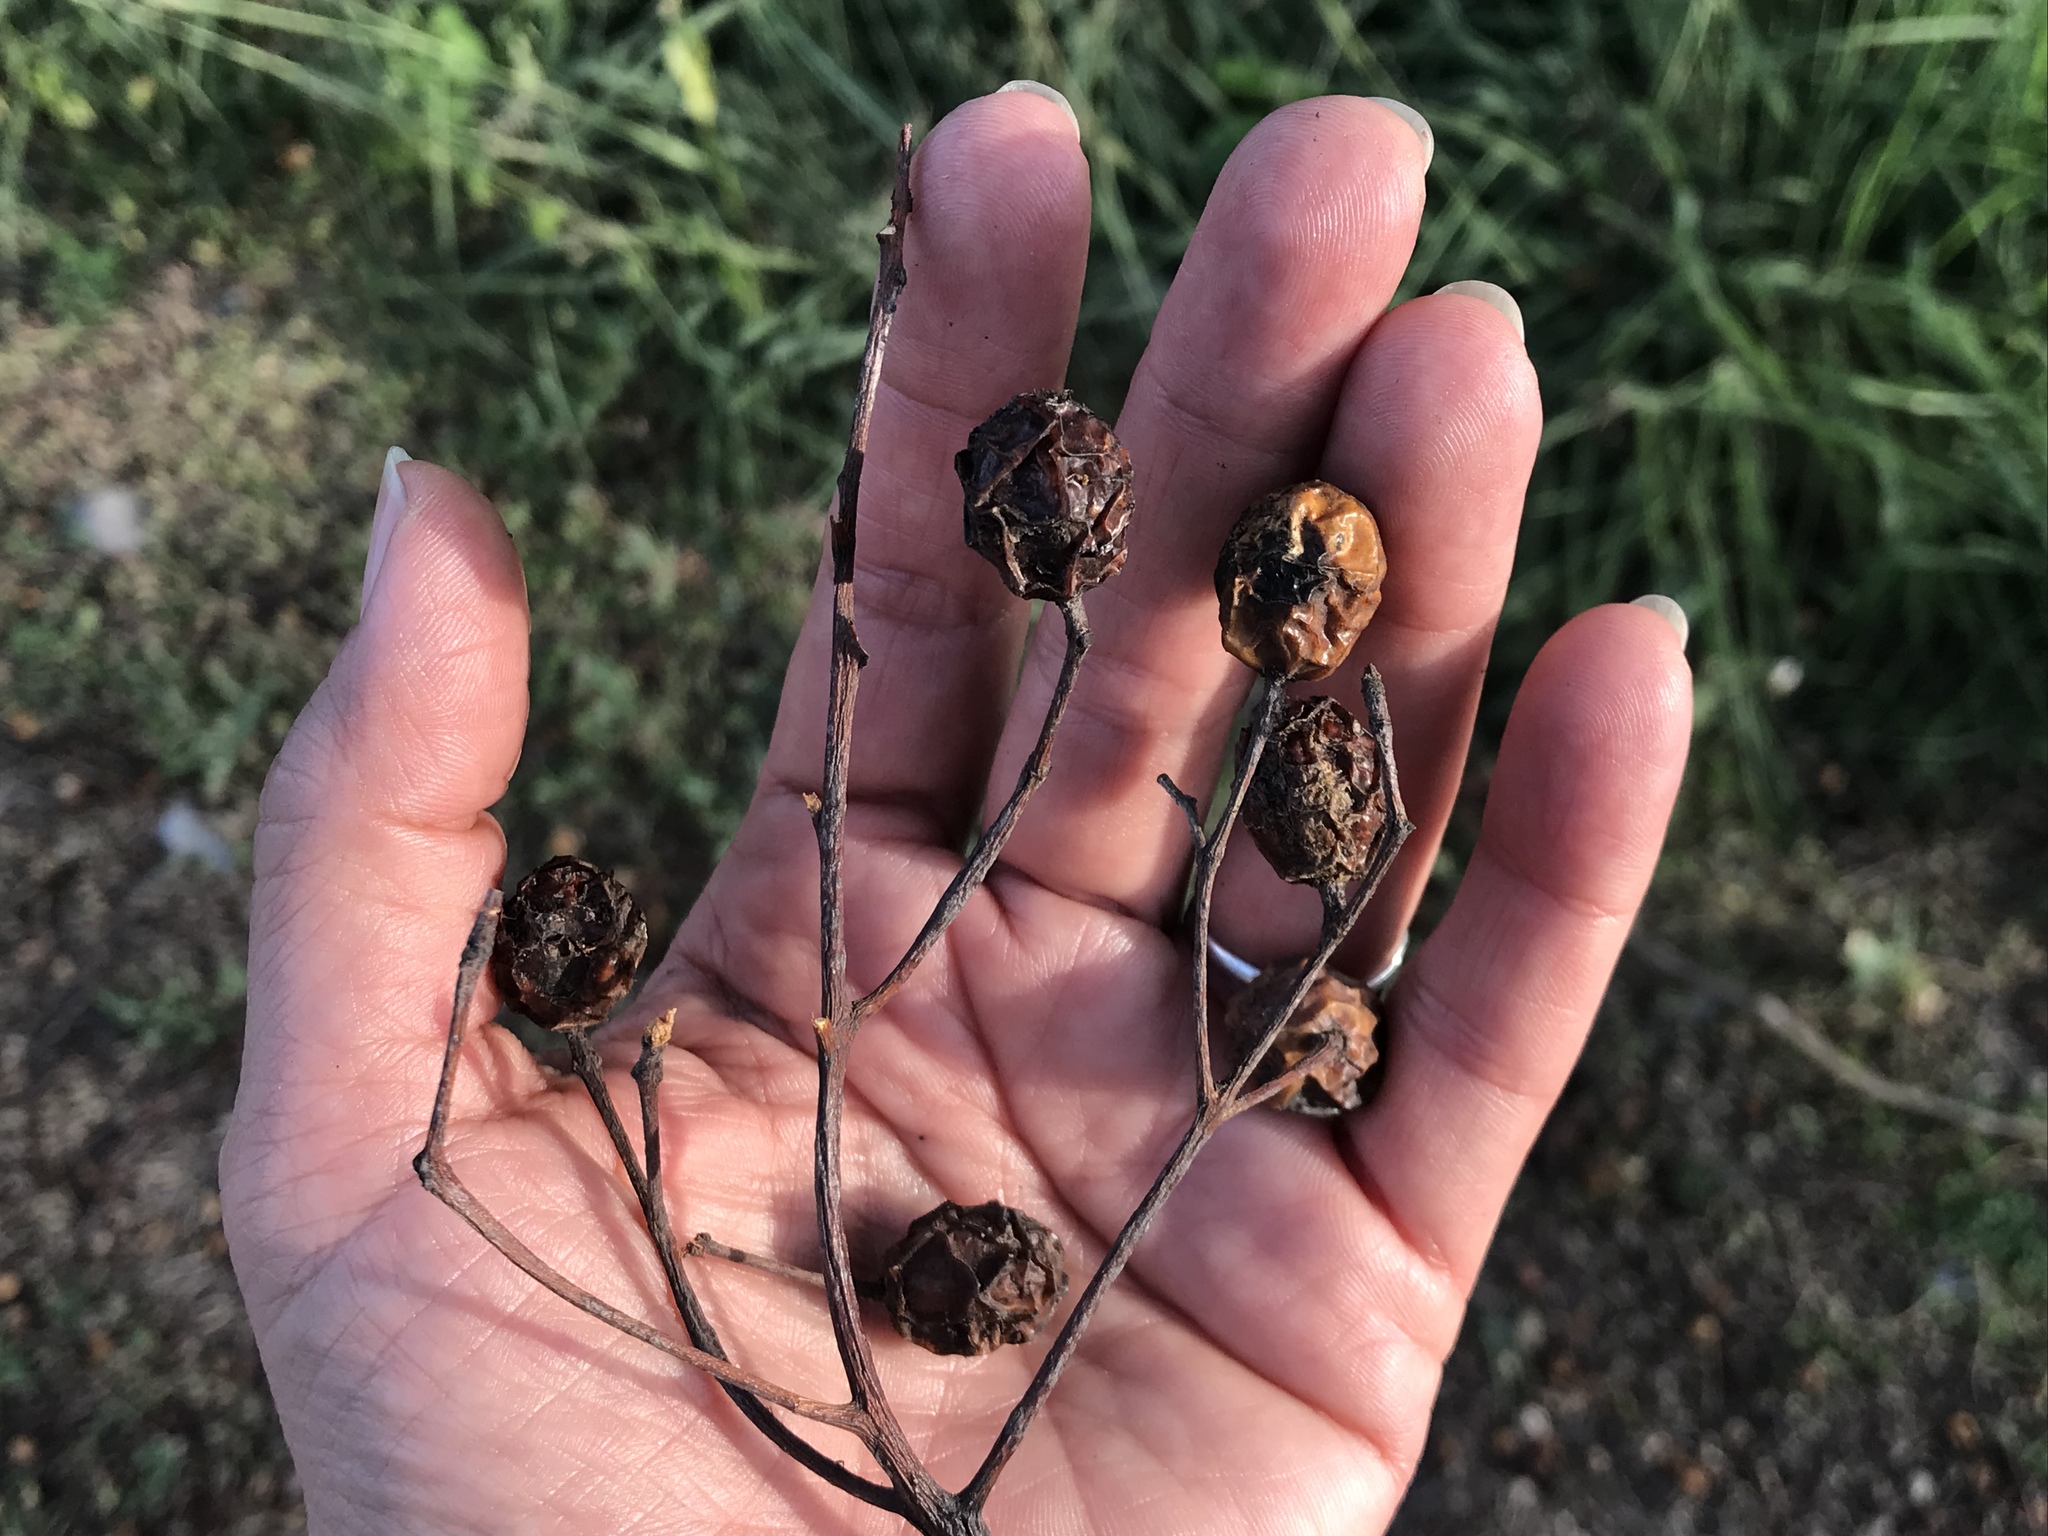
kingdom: Plantae
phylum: Tracheophyta
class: Magnoliopsida
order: Sapindales
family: Meliaceae
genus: Melia
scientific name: Melia azedarach
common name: Chinaberrytree
